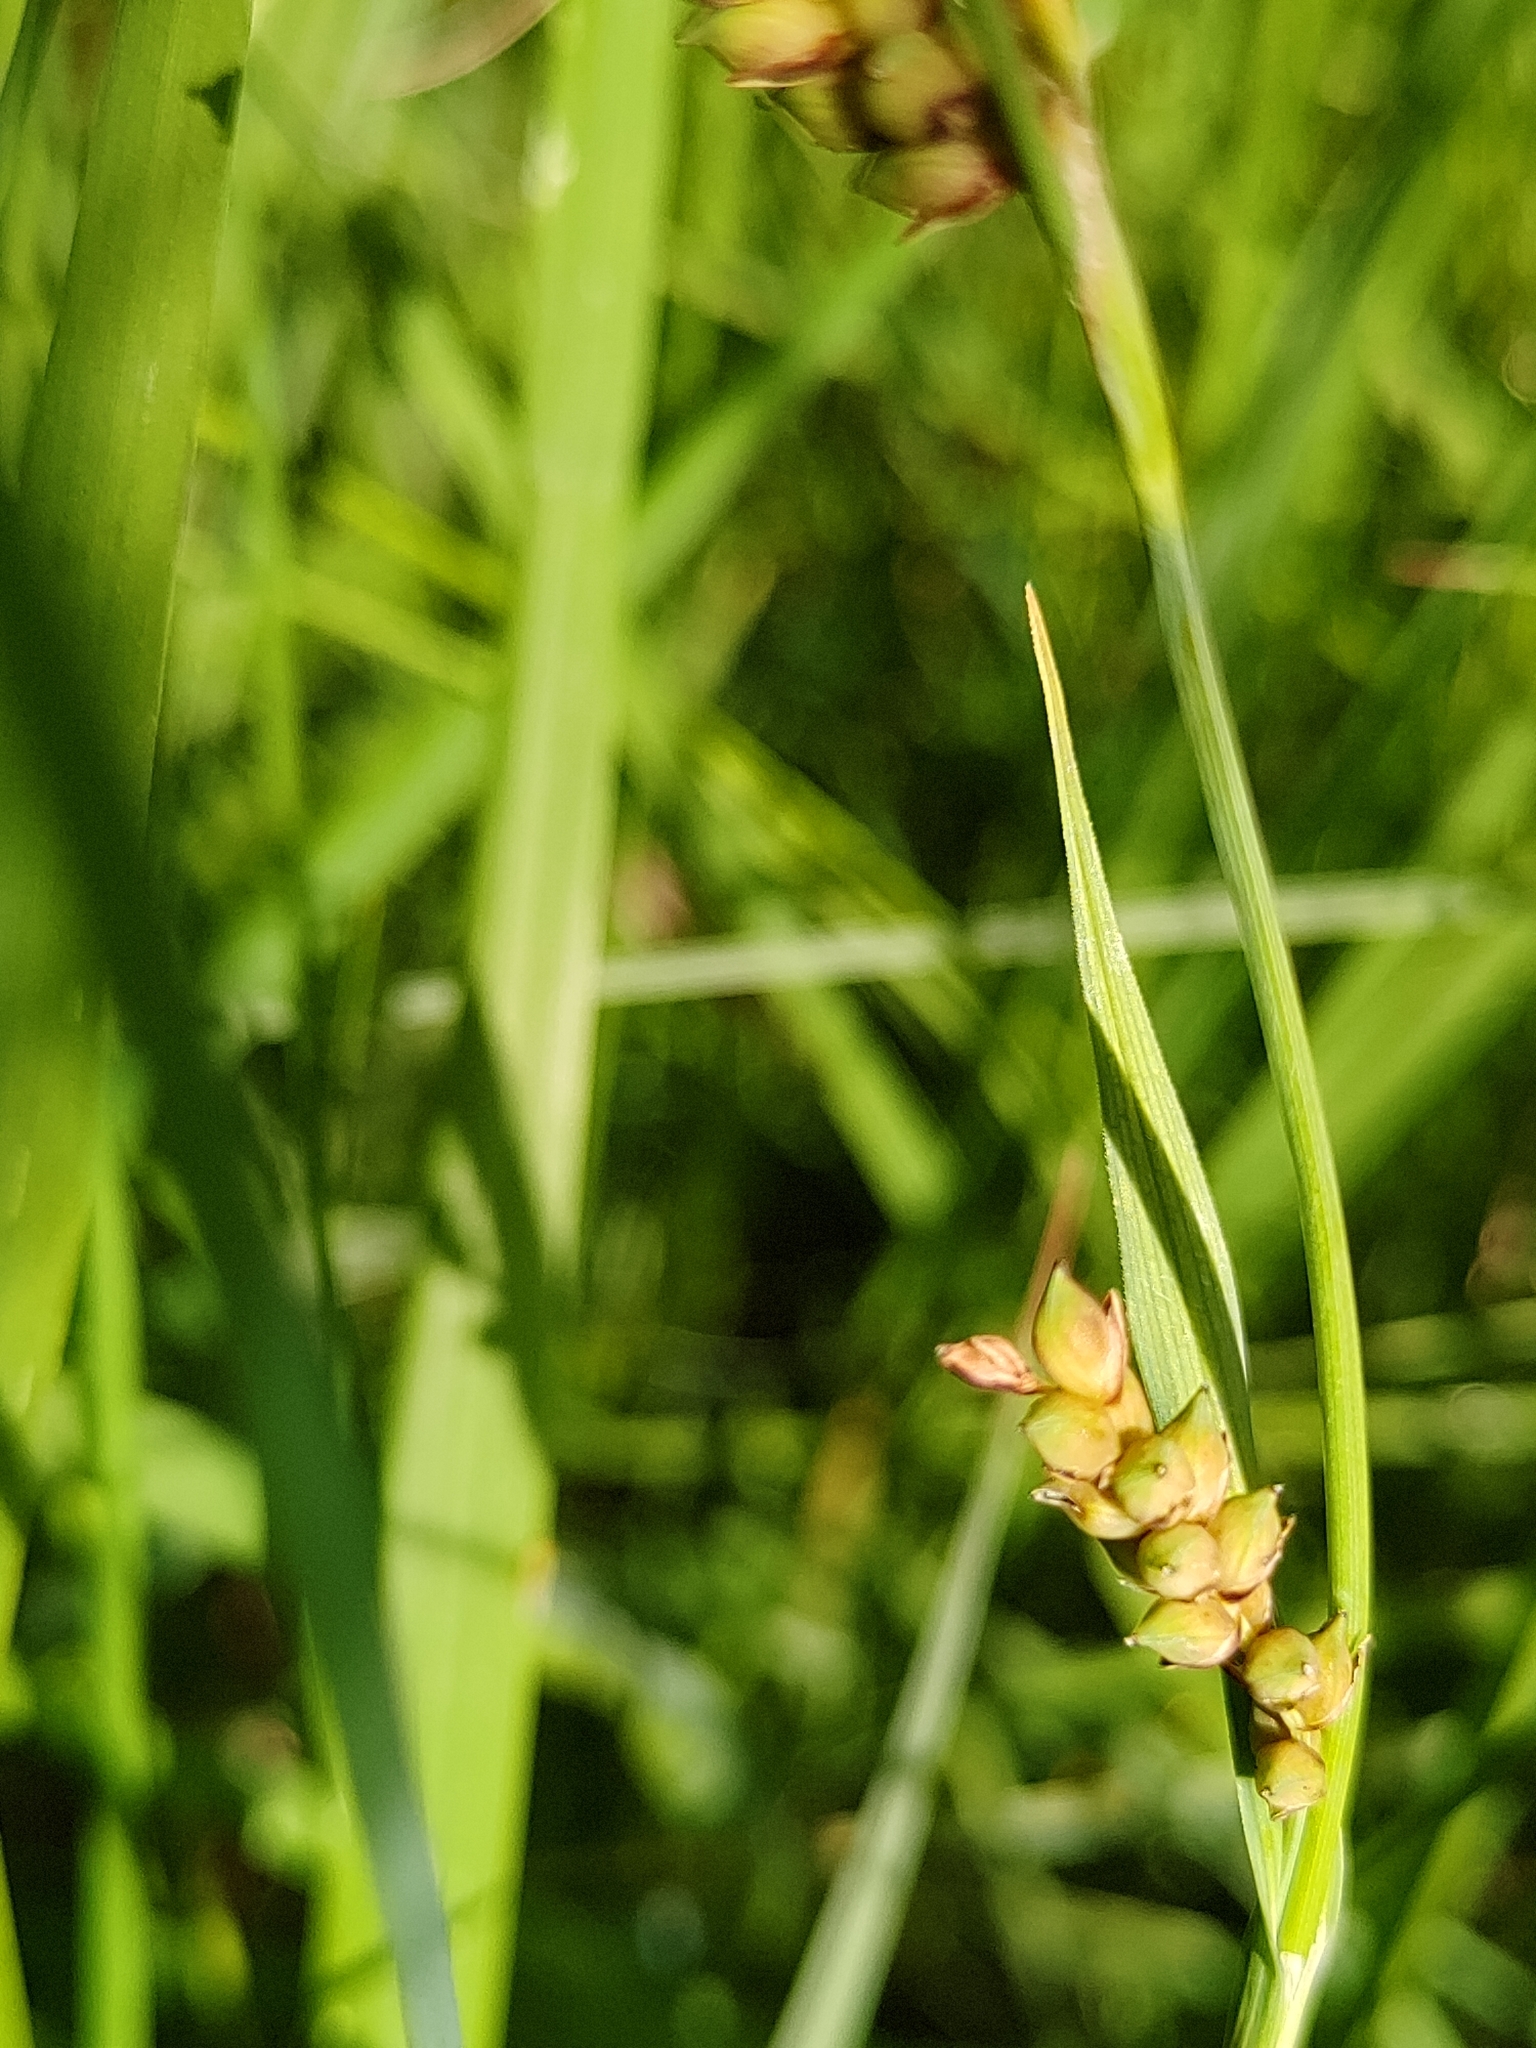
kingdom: Plantae
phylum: Tracheophyta
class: Liliopsida
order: Poales
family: Cyperaceae
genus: Carex
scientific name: Carex panicea
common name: Carnation sedge
